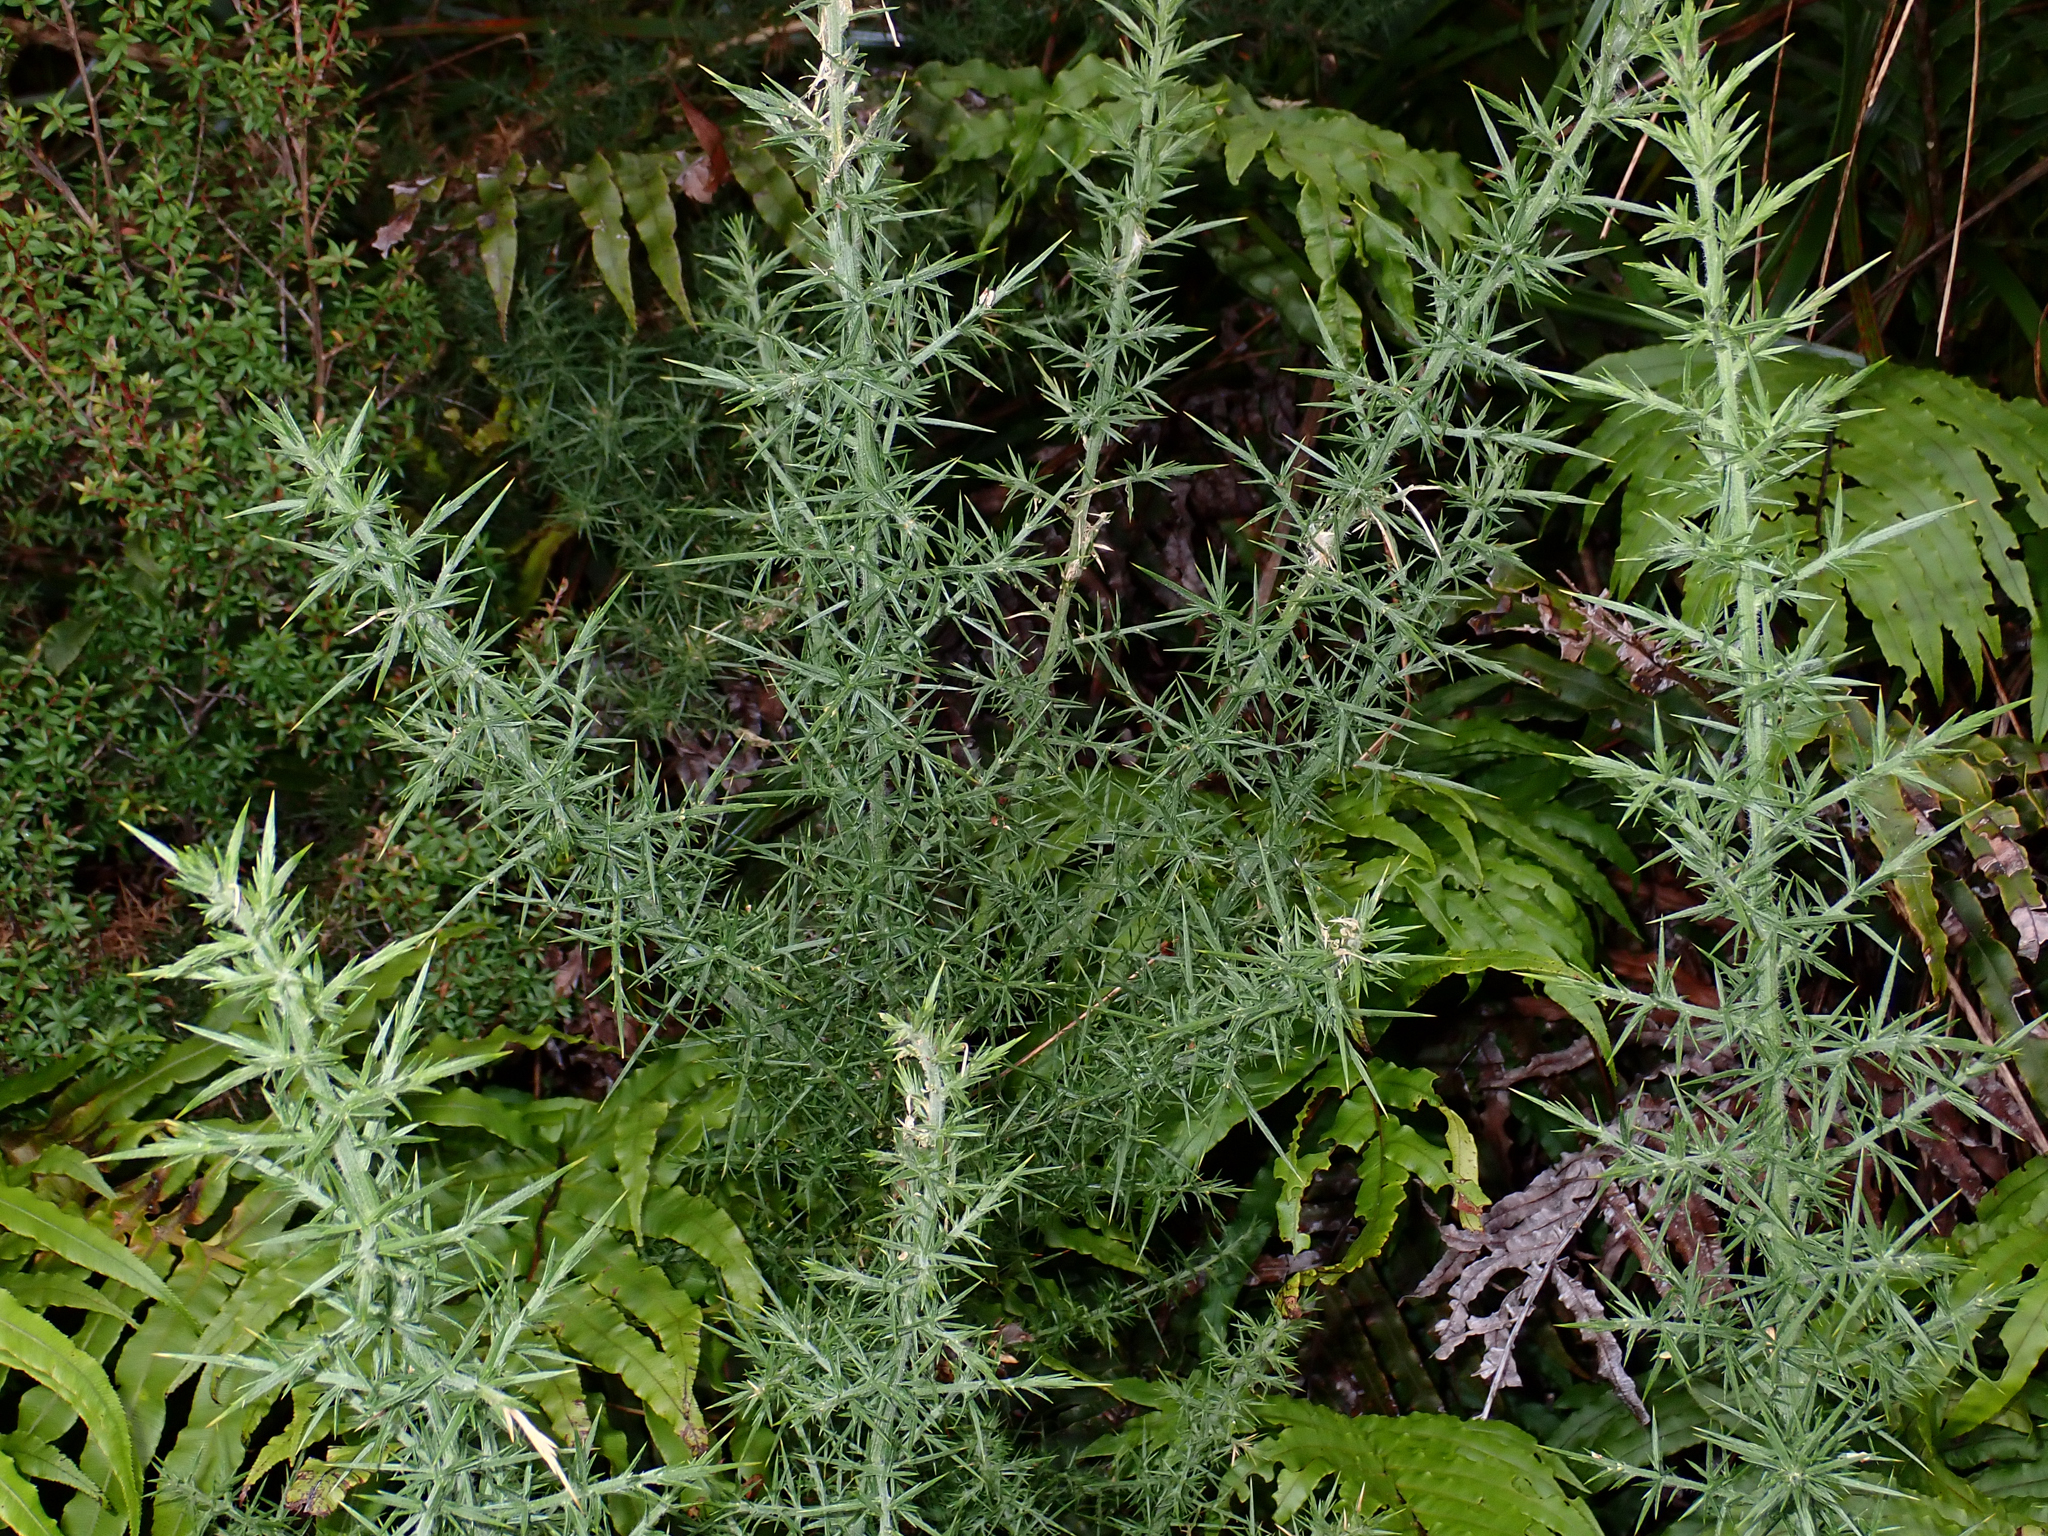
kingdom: Plantae
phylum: Tracheophyta
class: Magnoliopsida
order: Fabales
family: Fabaceae
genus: Ulex
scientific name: Ulex europaeus
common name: Common gorse
